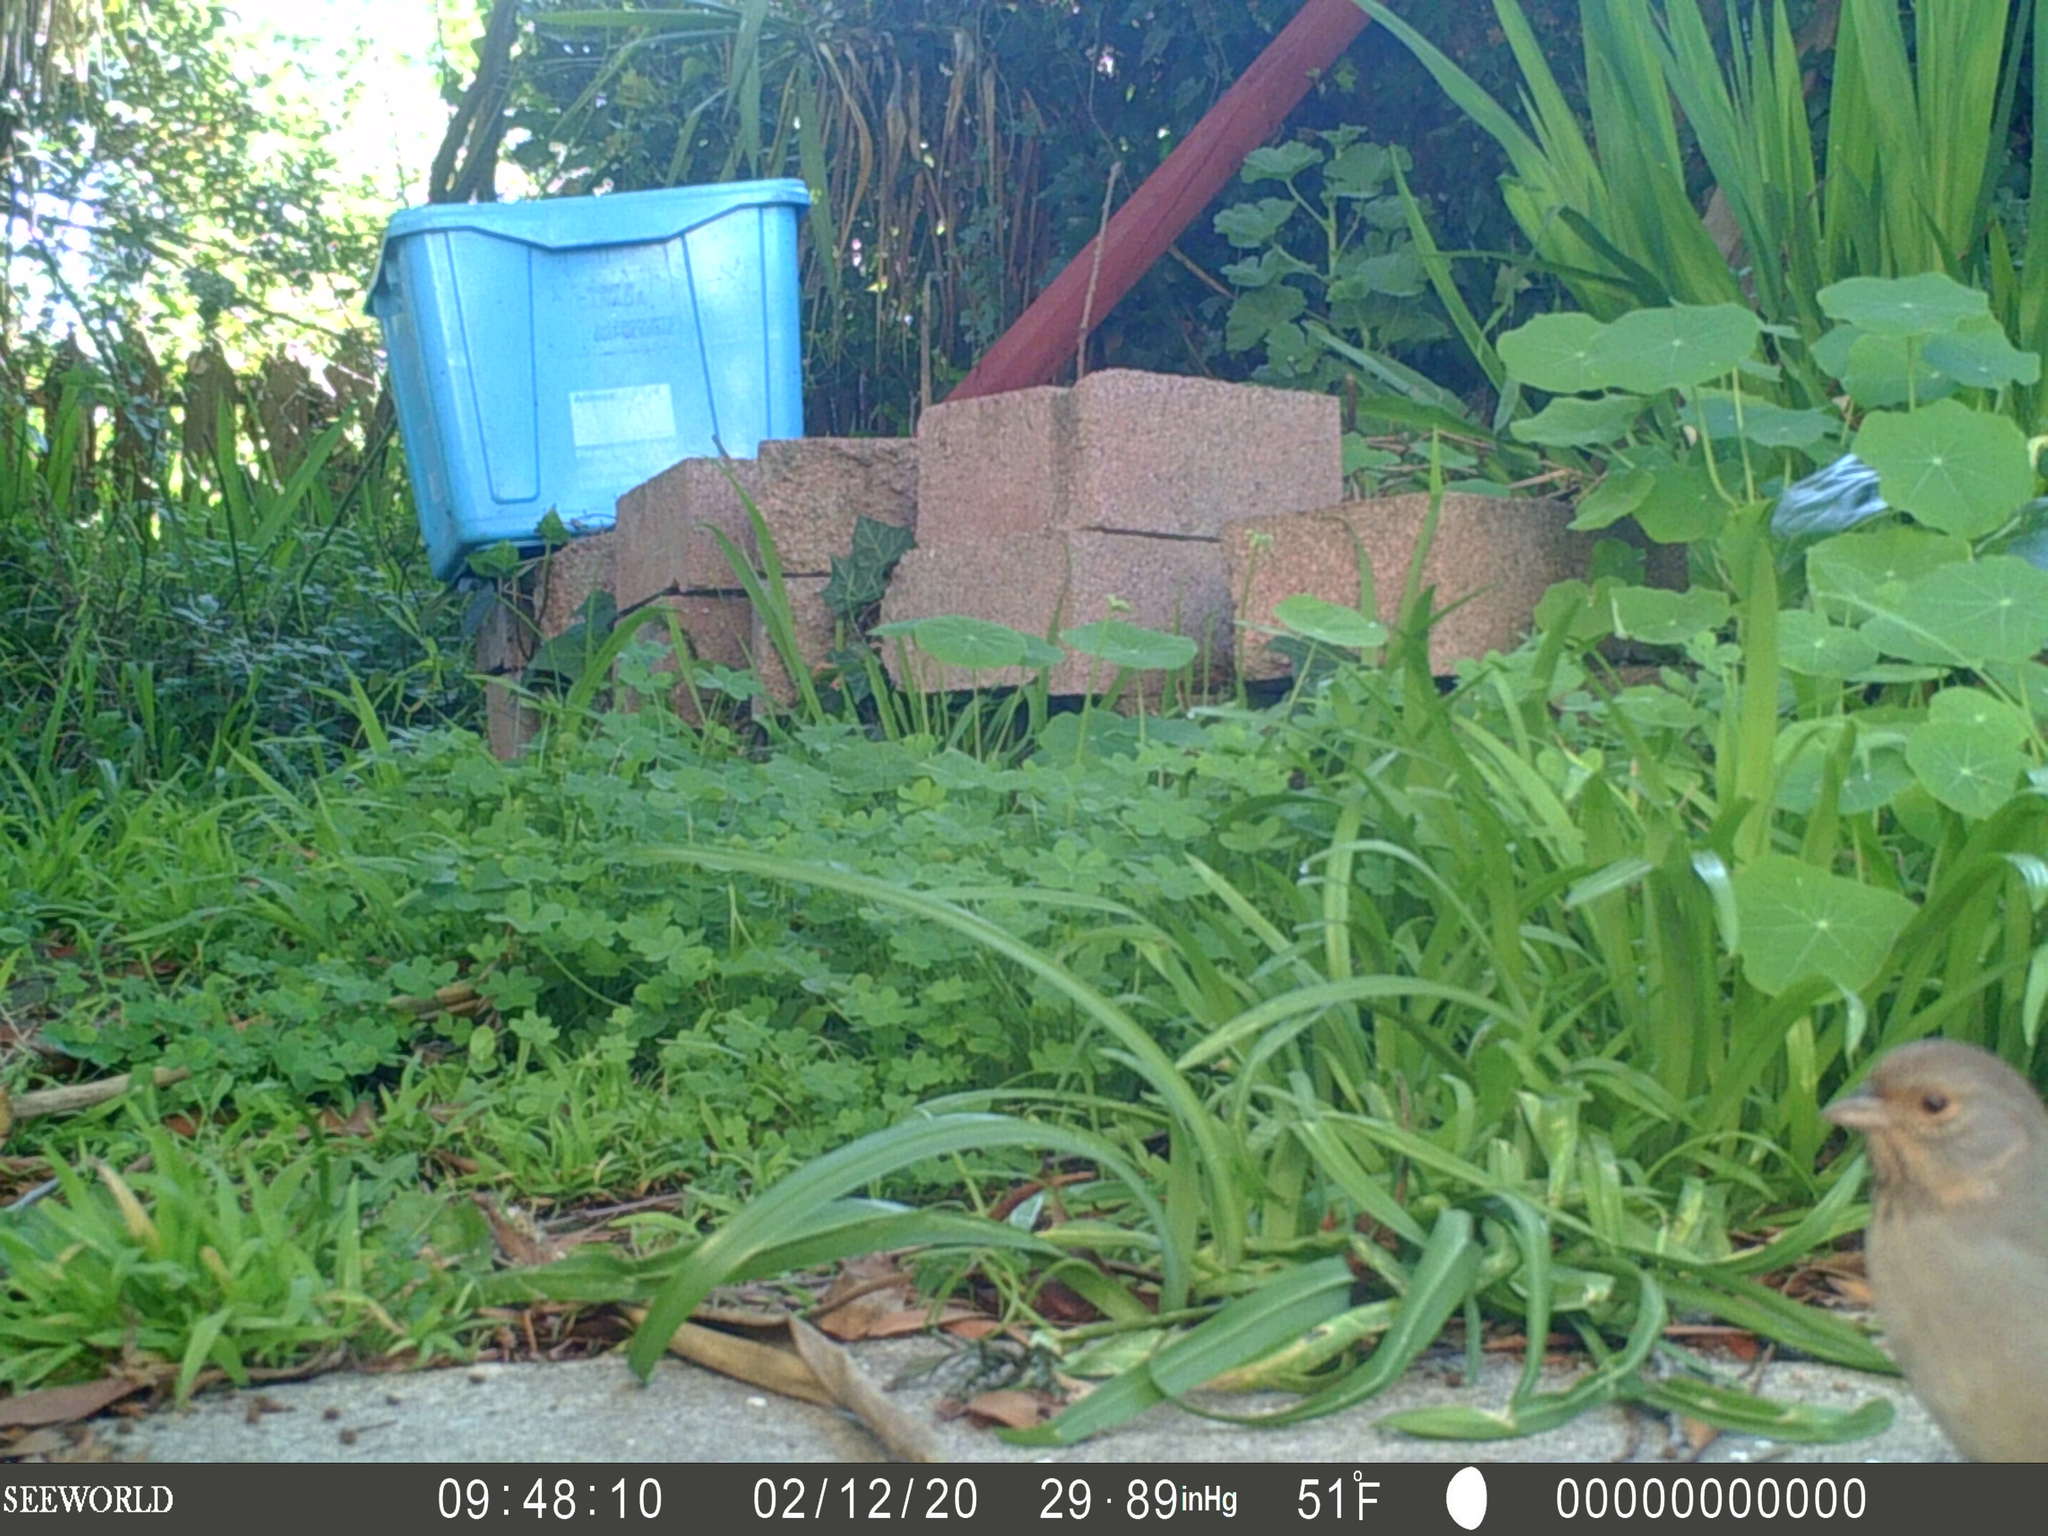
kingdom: Animalia
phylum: Chordata
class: Aves
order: Passeriformes
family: Passerellidae
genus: Melozone
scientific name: Melozone crissalis
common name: California towhee
